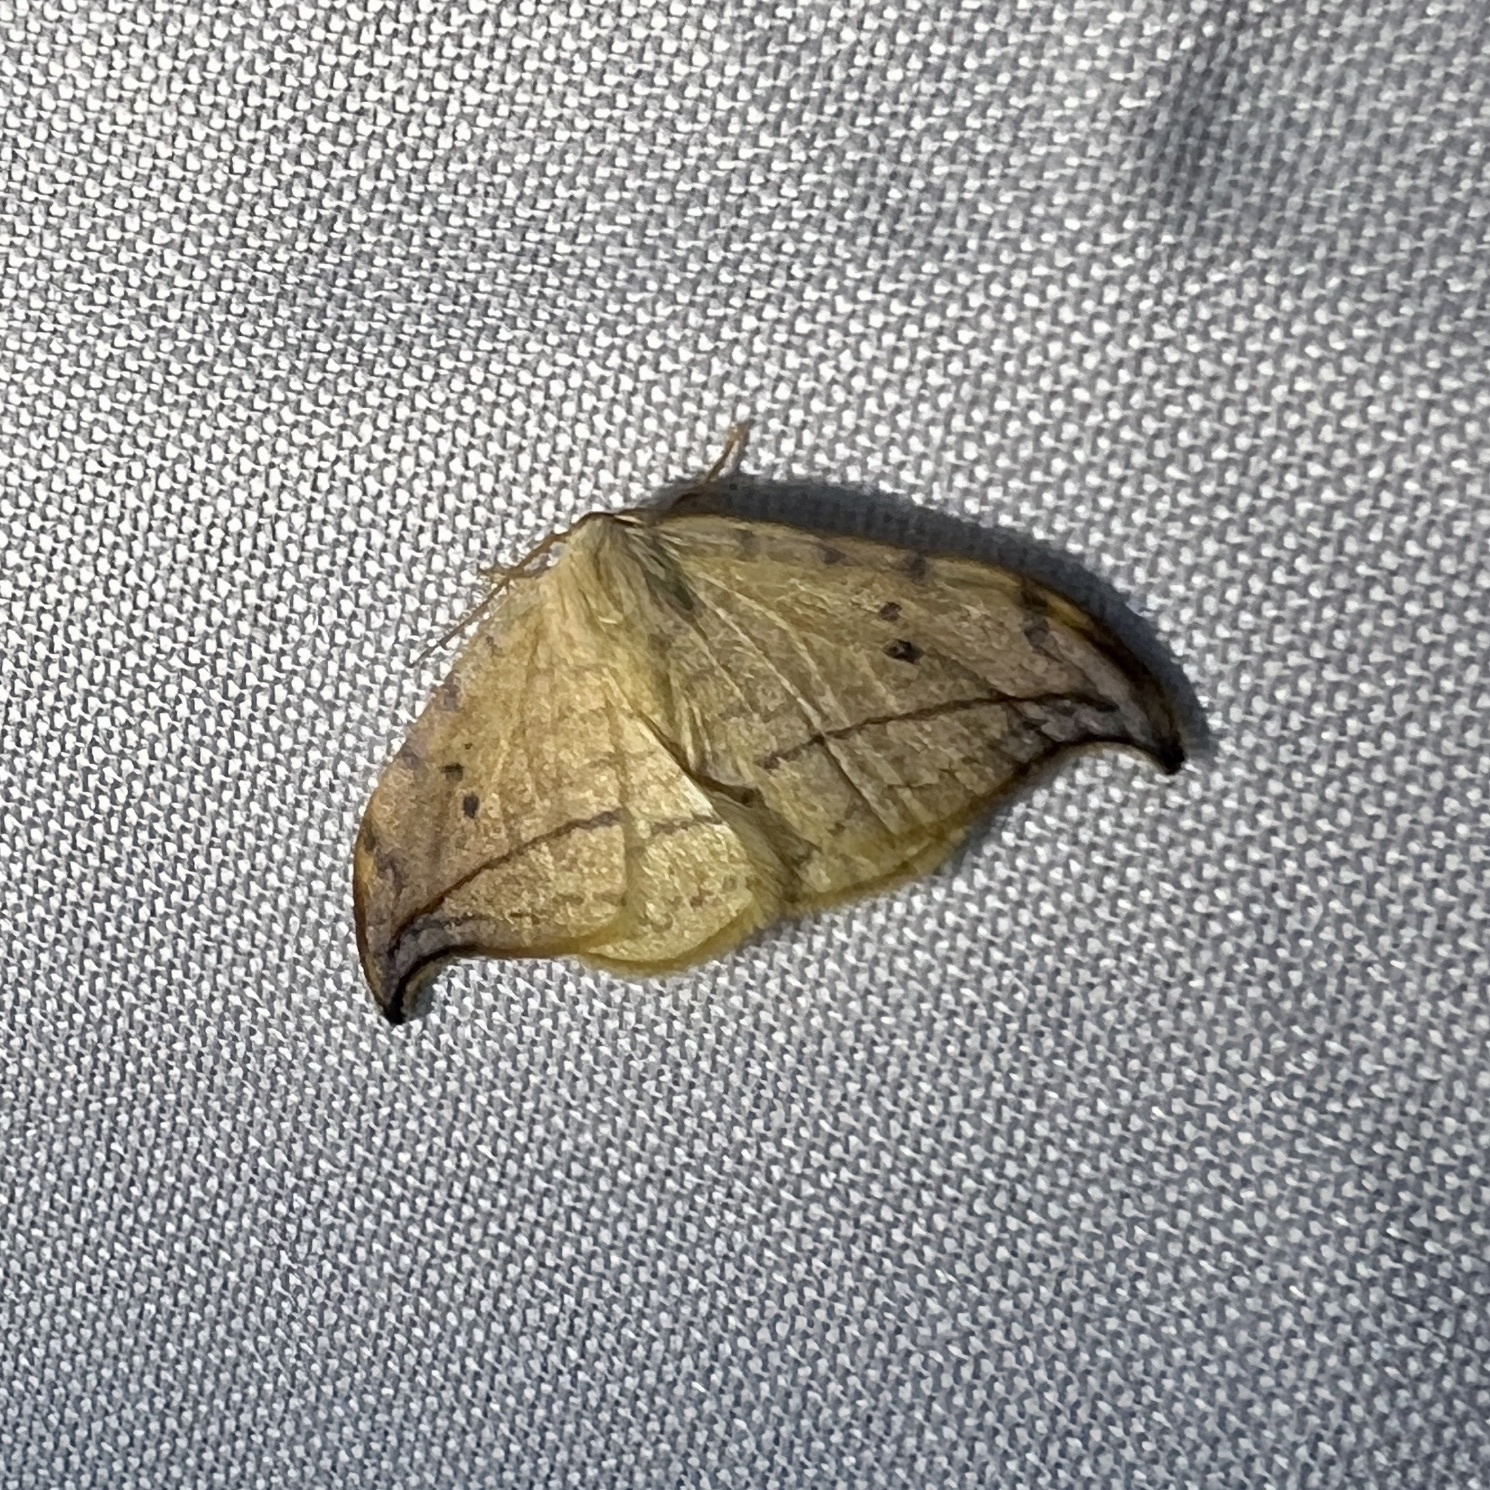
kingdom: Animalia
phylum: Arthropoda
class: Insecta
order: Lepidoptera
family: Drepanidae
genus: Drepana
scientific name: Drepana arcuata
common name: Arched hooktip moth
